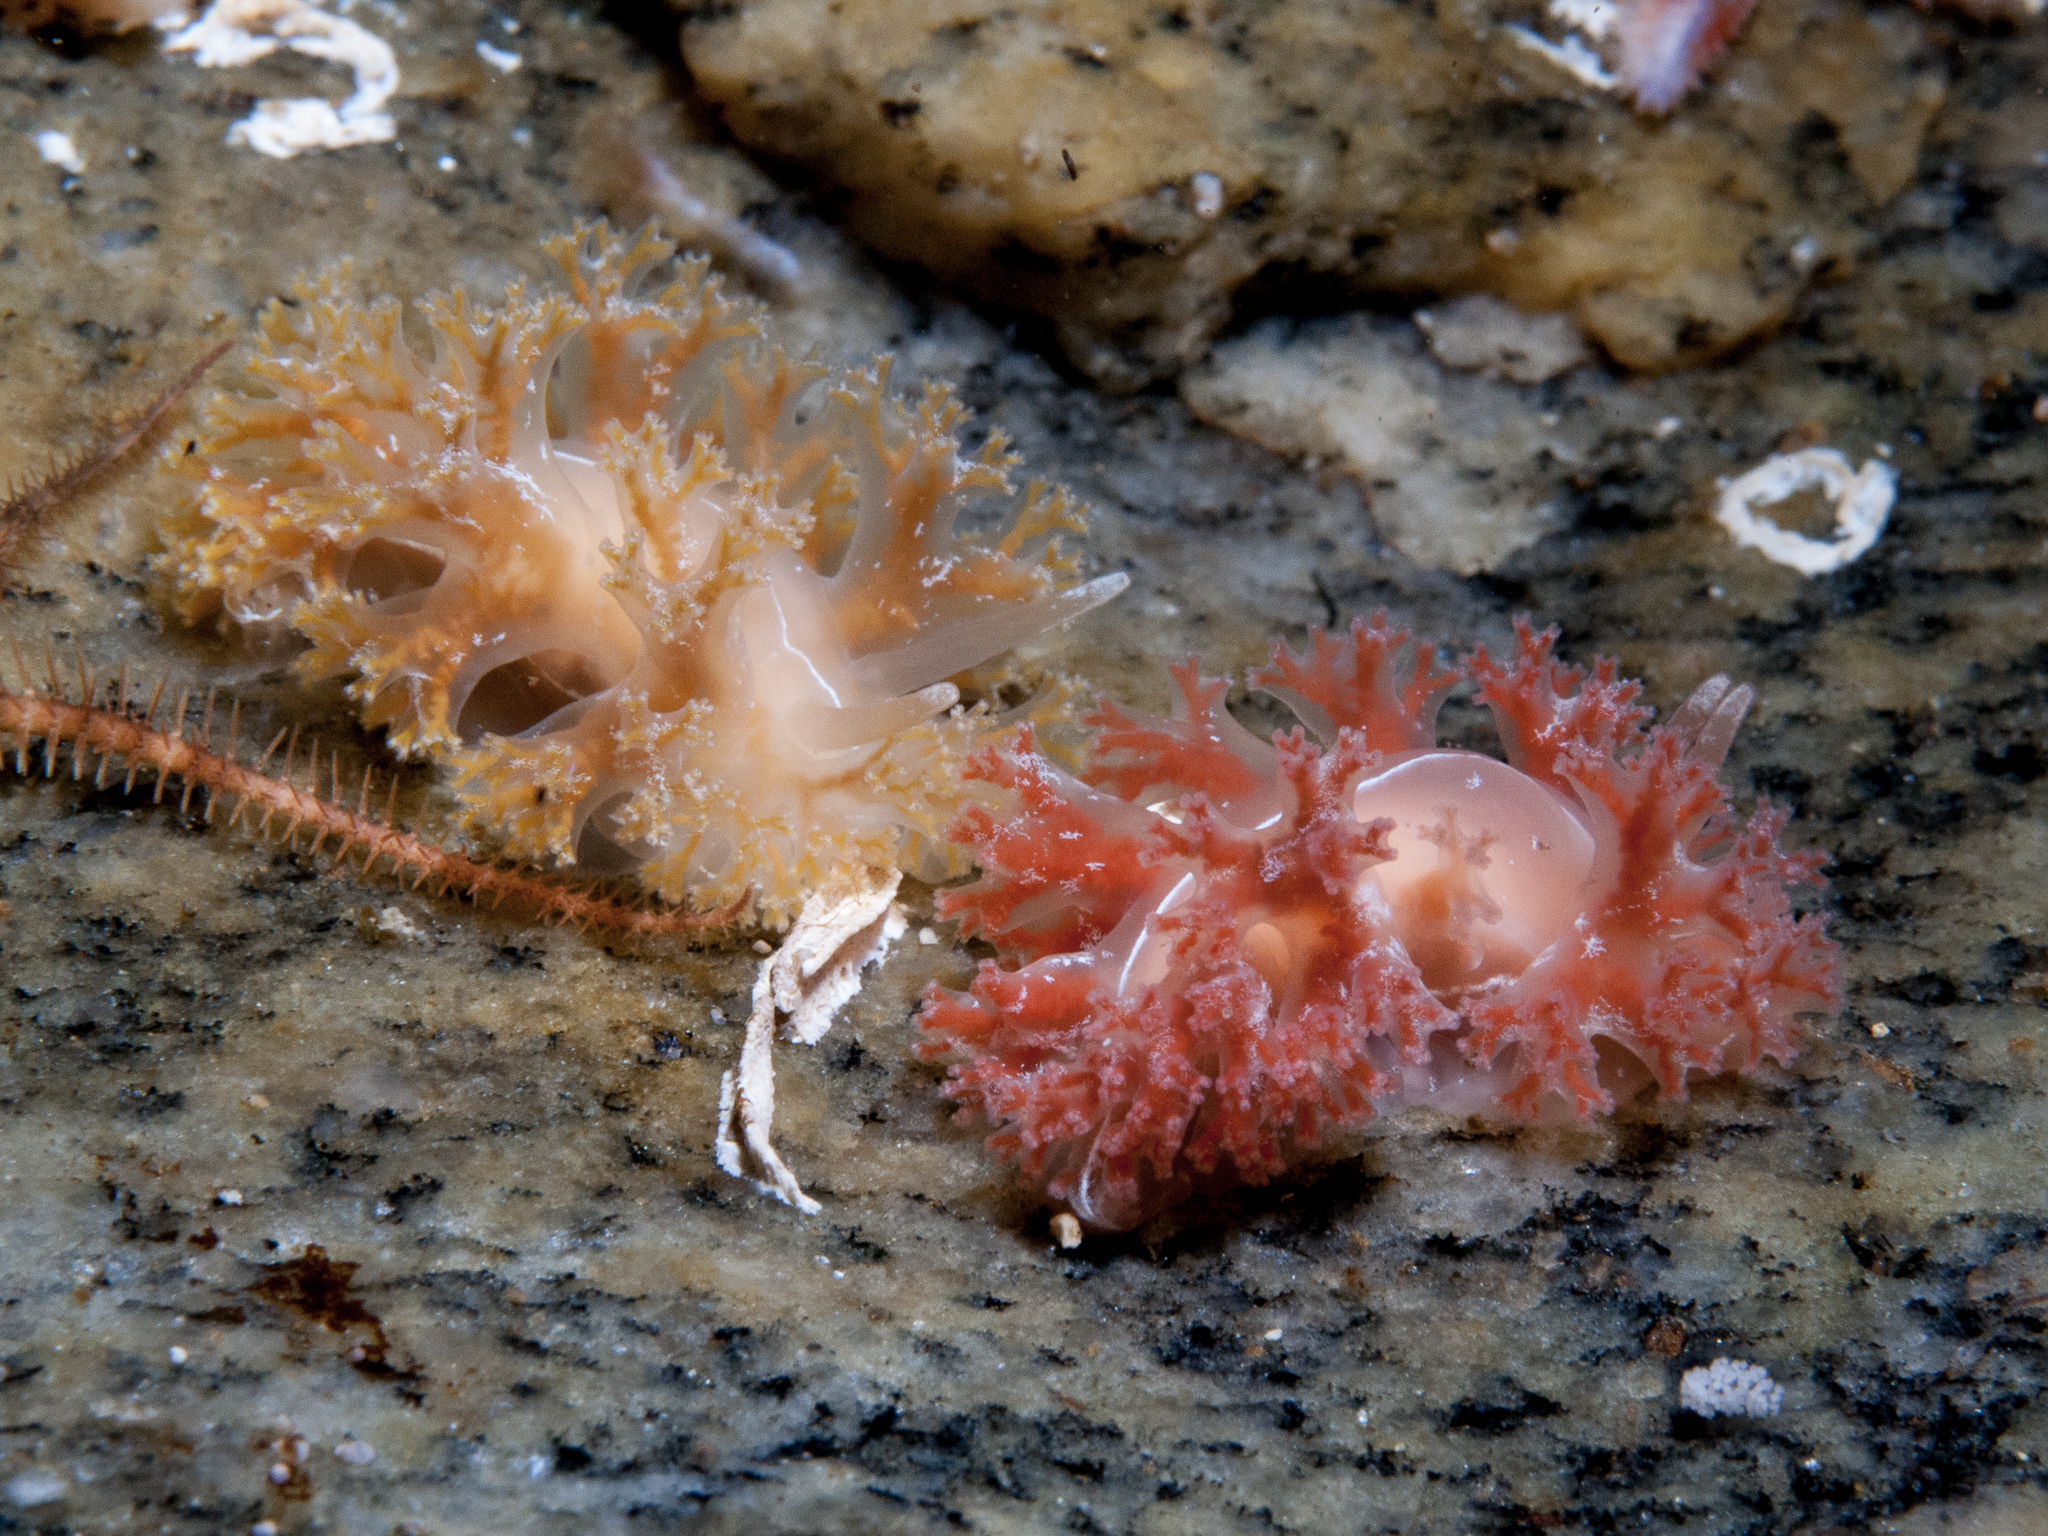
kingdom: Animalia
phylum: Mollusca
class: Gastropoda
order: Nudibranchia
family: Heroidae
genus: Hero
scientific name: Hero formosa
